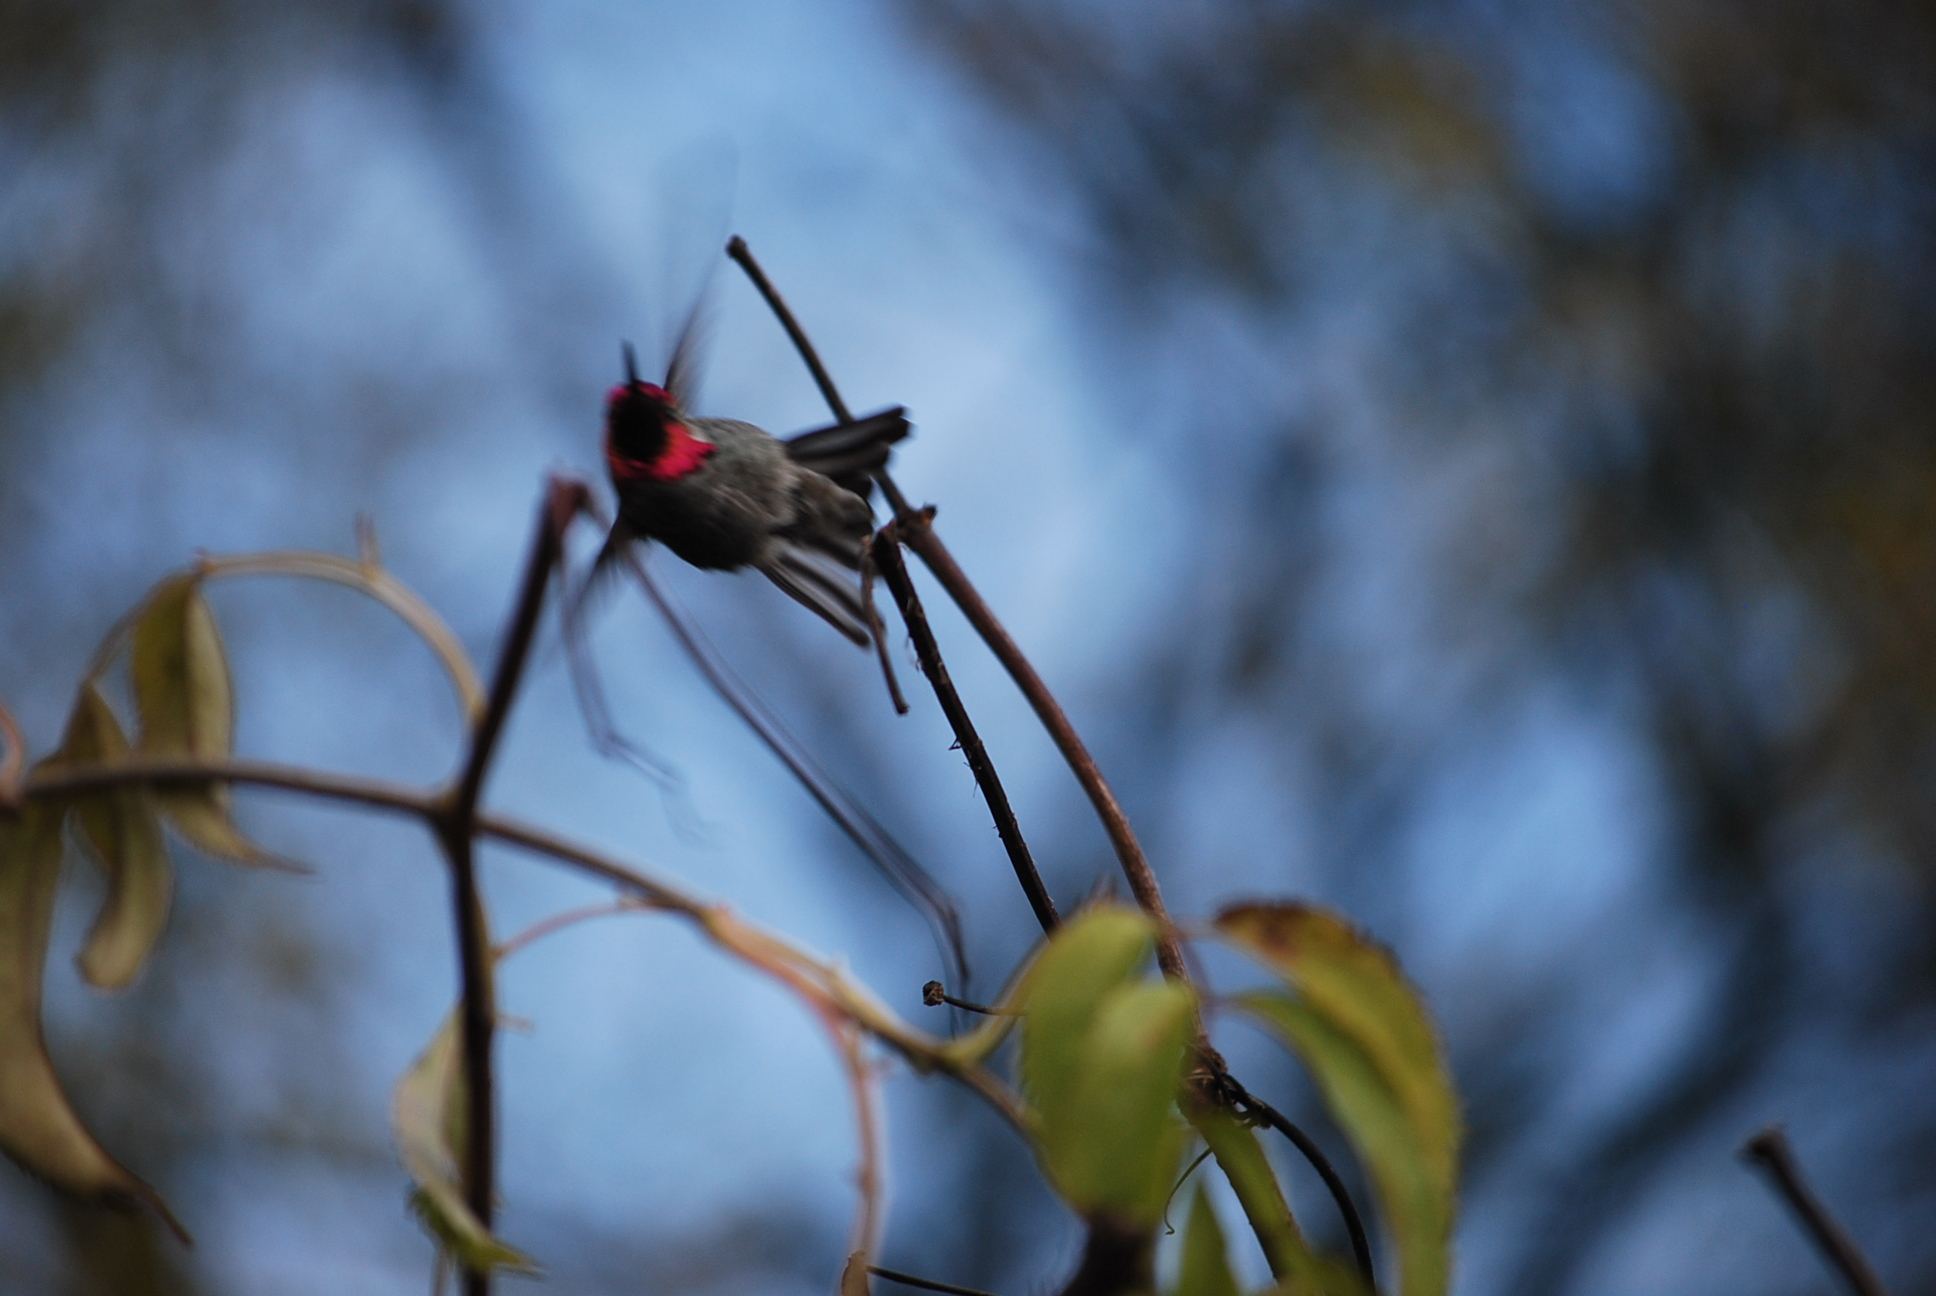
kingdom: Animalia
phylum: Chordata
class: Aves
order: Apodiformes
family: Trochilidae
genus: Calypte
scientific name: Calypte anna
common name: Anna's hummingbird
